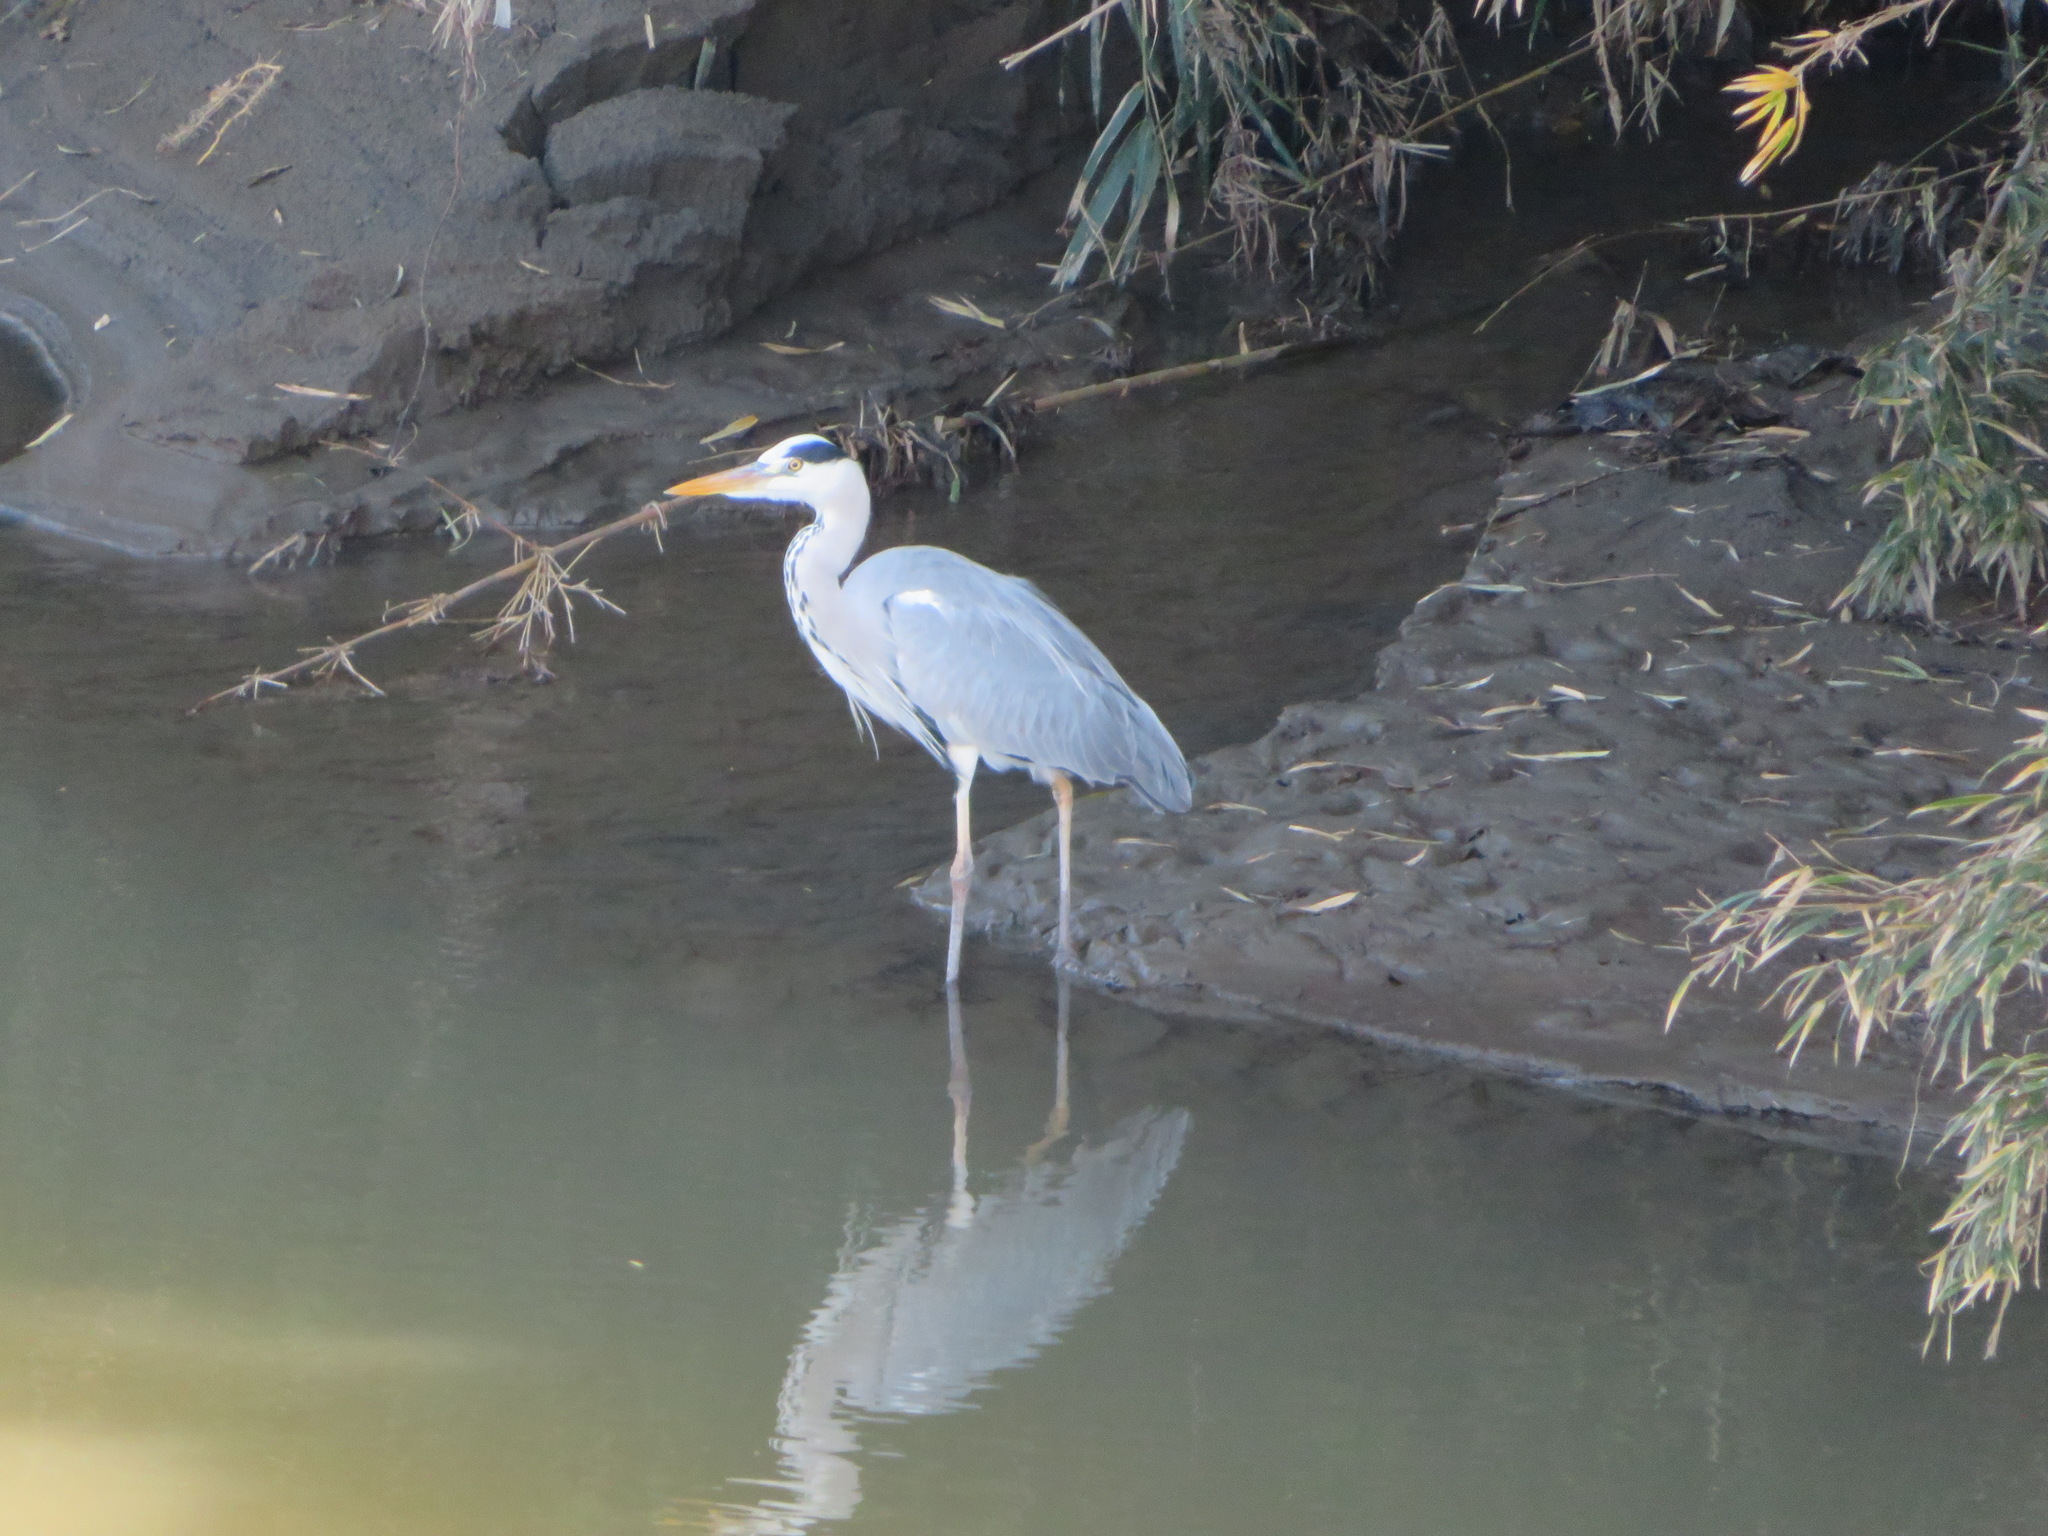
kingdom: Animalia
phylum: Chordata
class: Aves
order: Pelecaniformes
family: Ardeidae
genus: Ardea
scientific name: Ardea cinerea
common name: Grey heron
